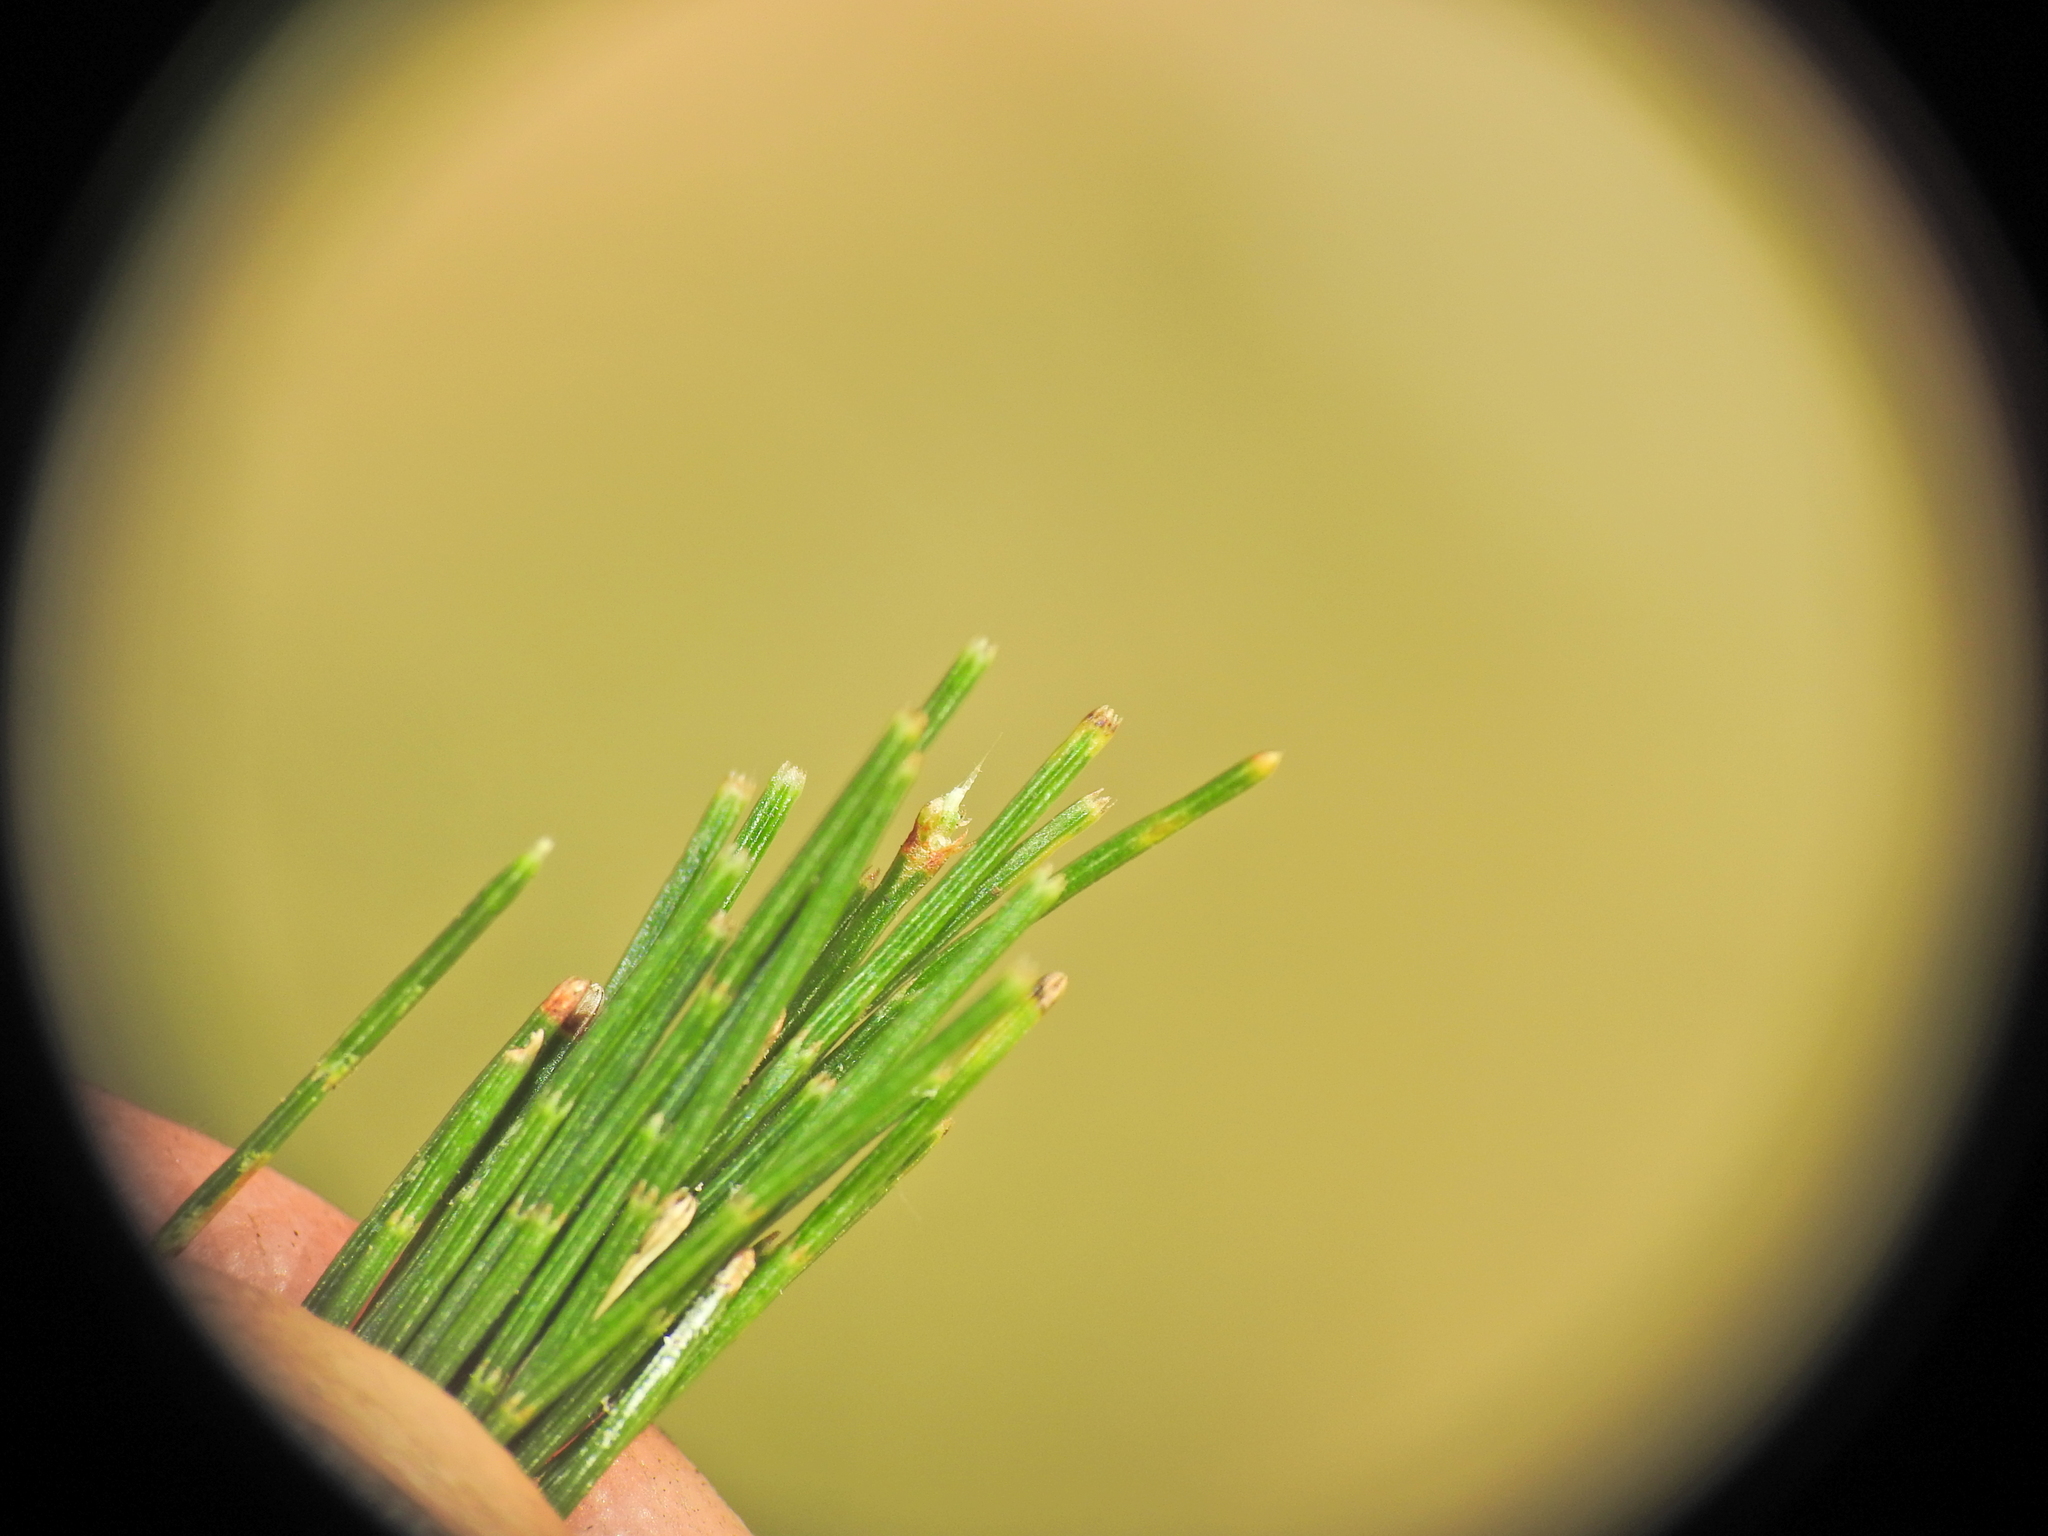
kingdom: Plantae
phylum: Tracheophyta
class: Magnoliopsida
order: Fagales
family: Casuarinaceae
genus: Allocasuarina
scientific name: Allocasuarina torulosa
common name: Forest-oak
